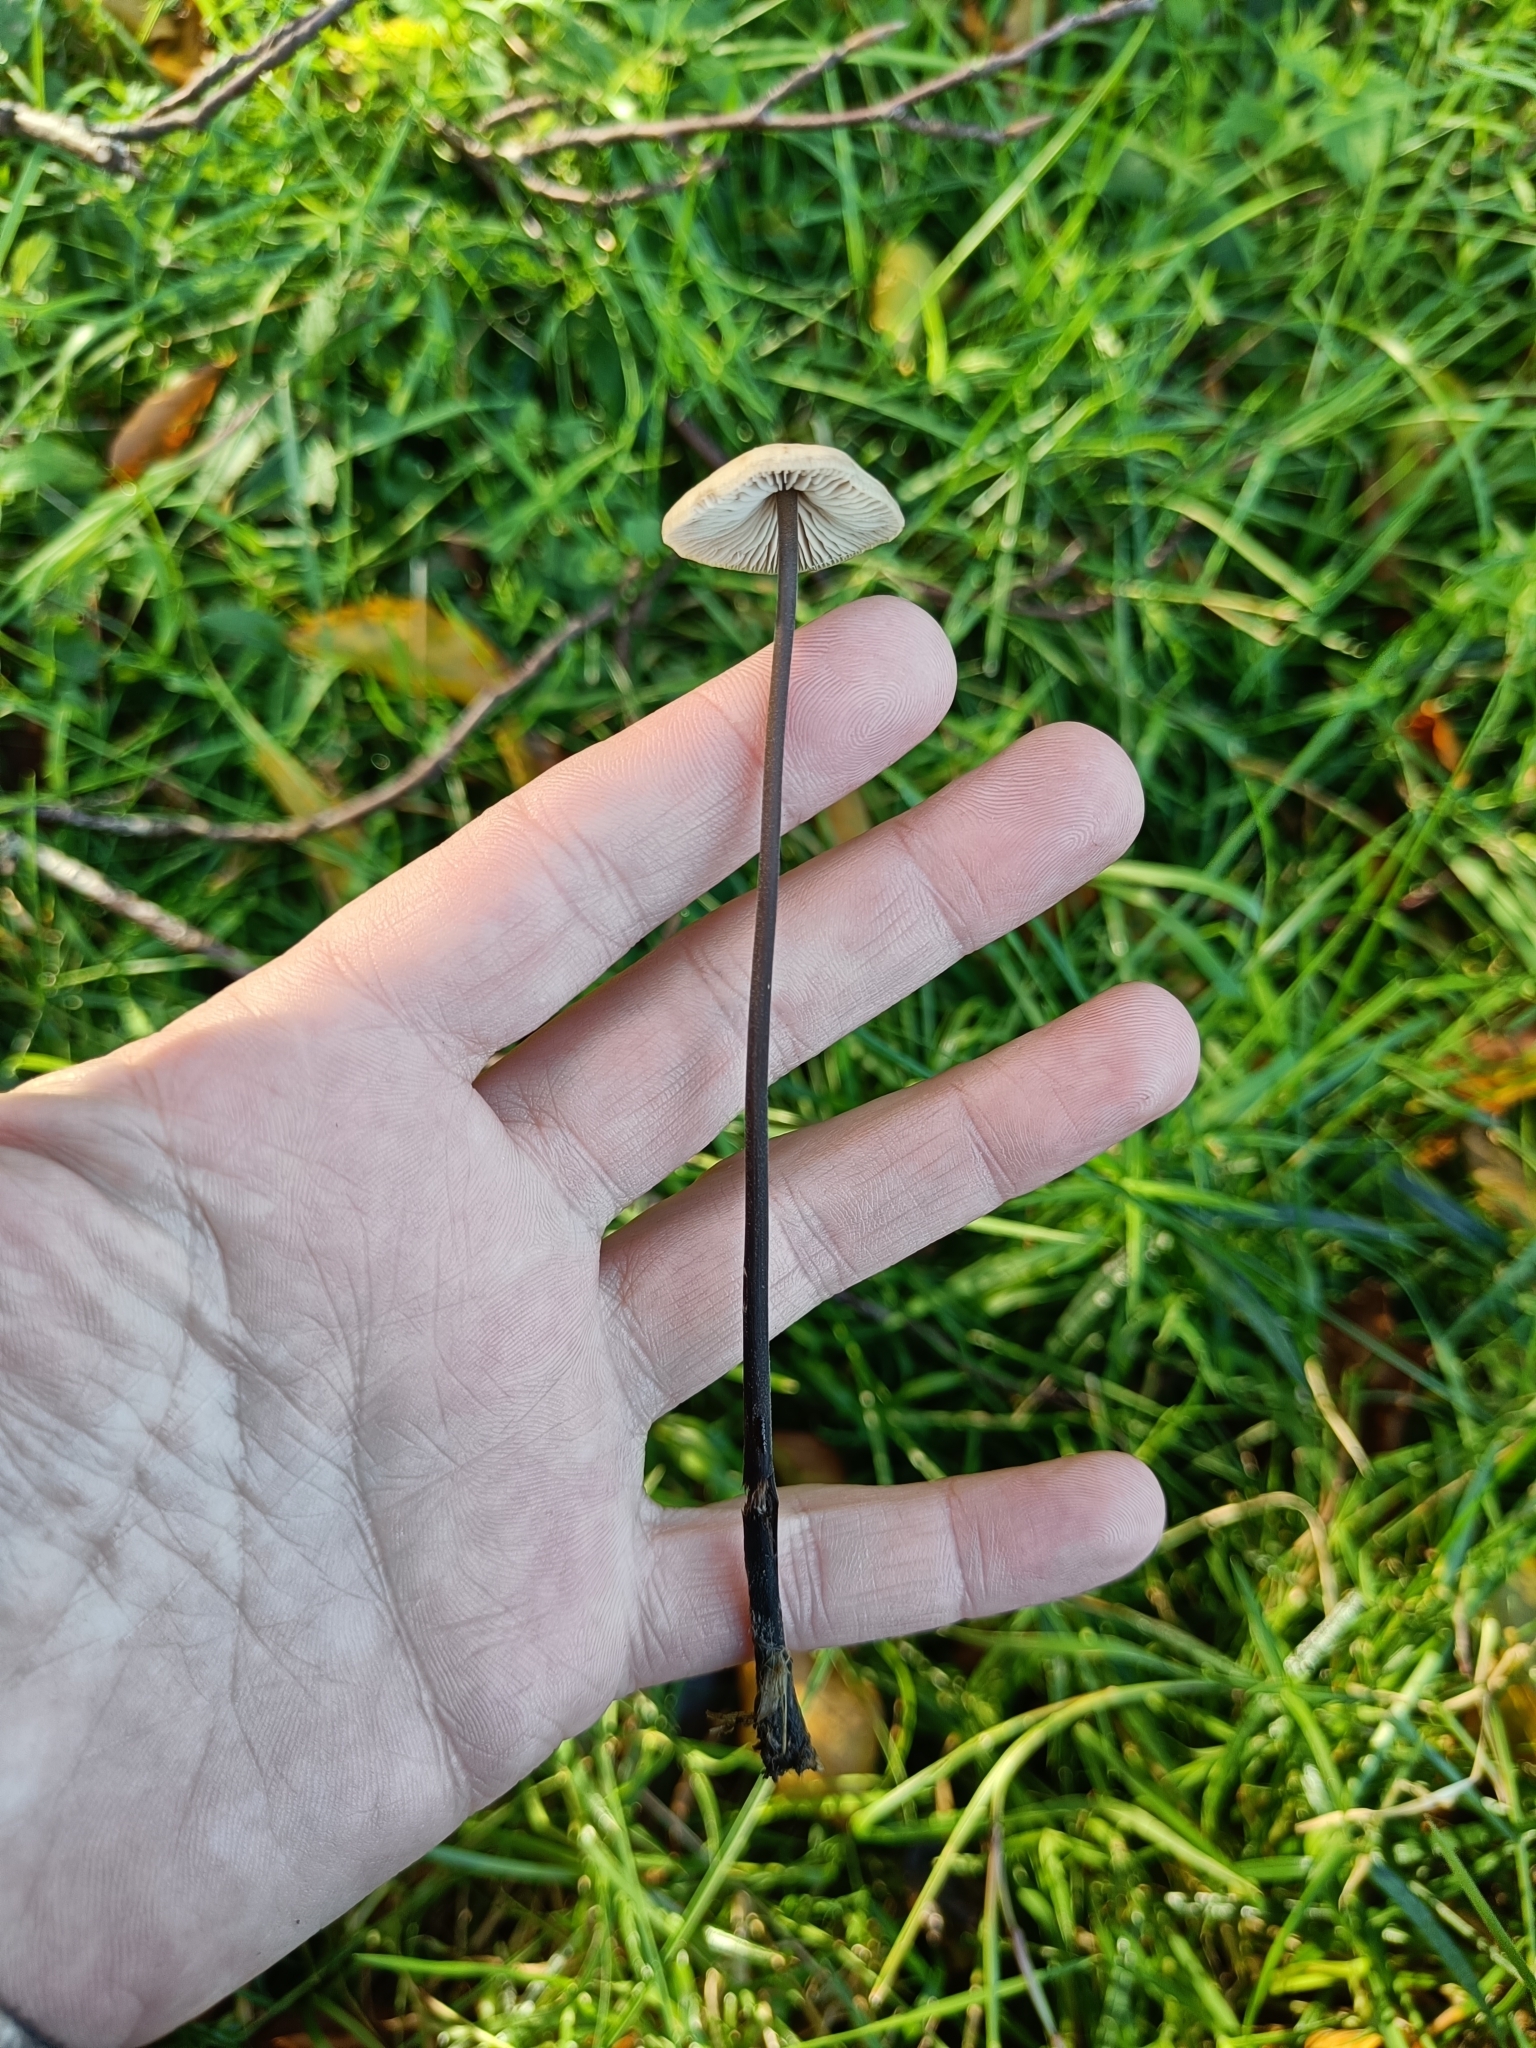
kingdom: Fungi
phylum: Basidiomycota
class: Agaricomycetes
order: Agaricales
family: Omphalotaceae
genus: Mycetinis
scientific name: Mycetinis alliaceus
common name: Garlic parachute
